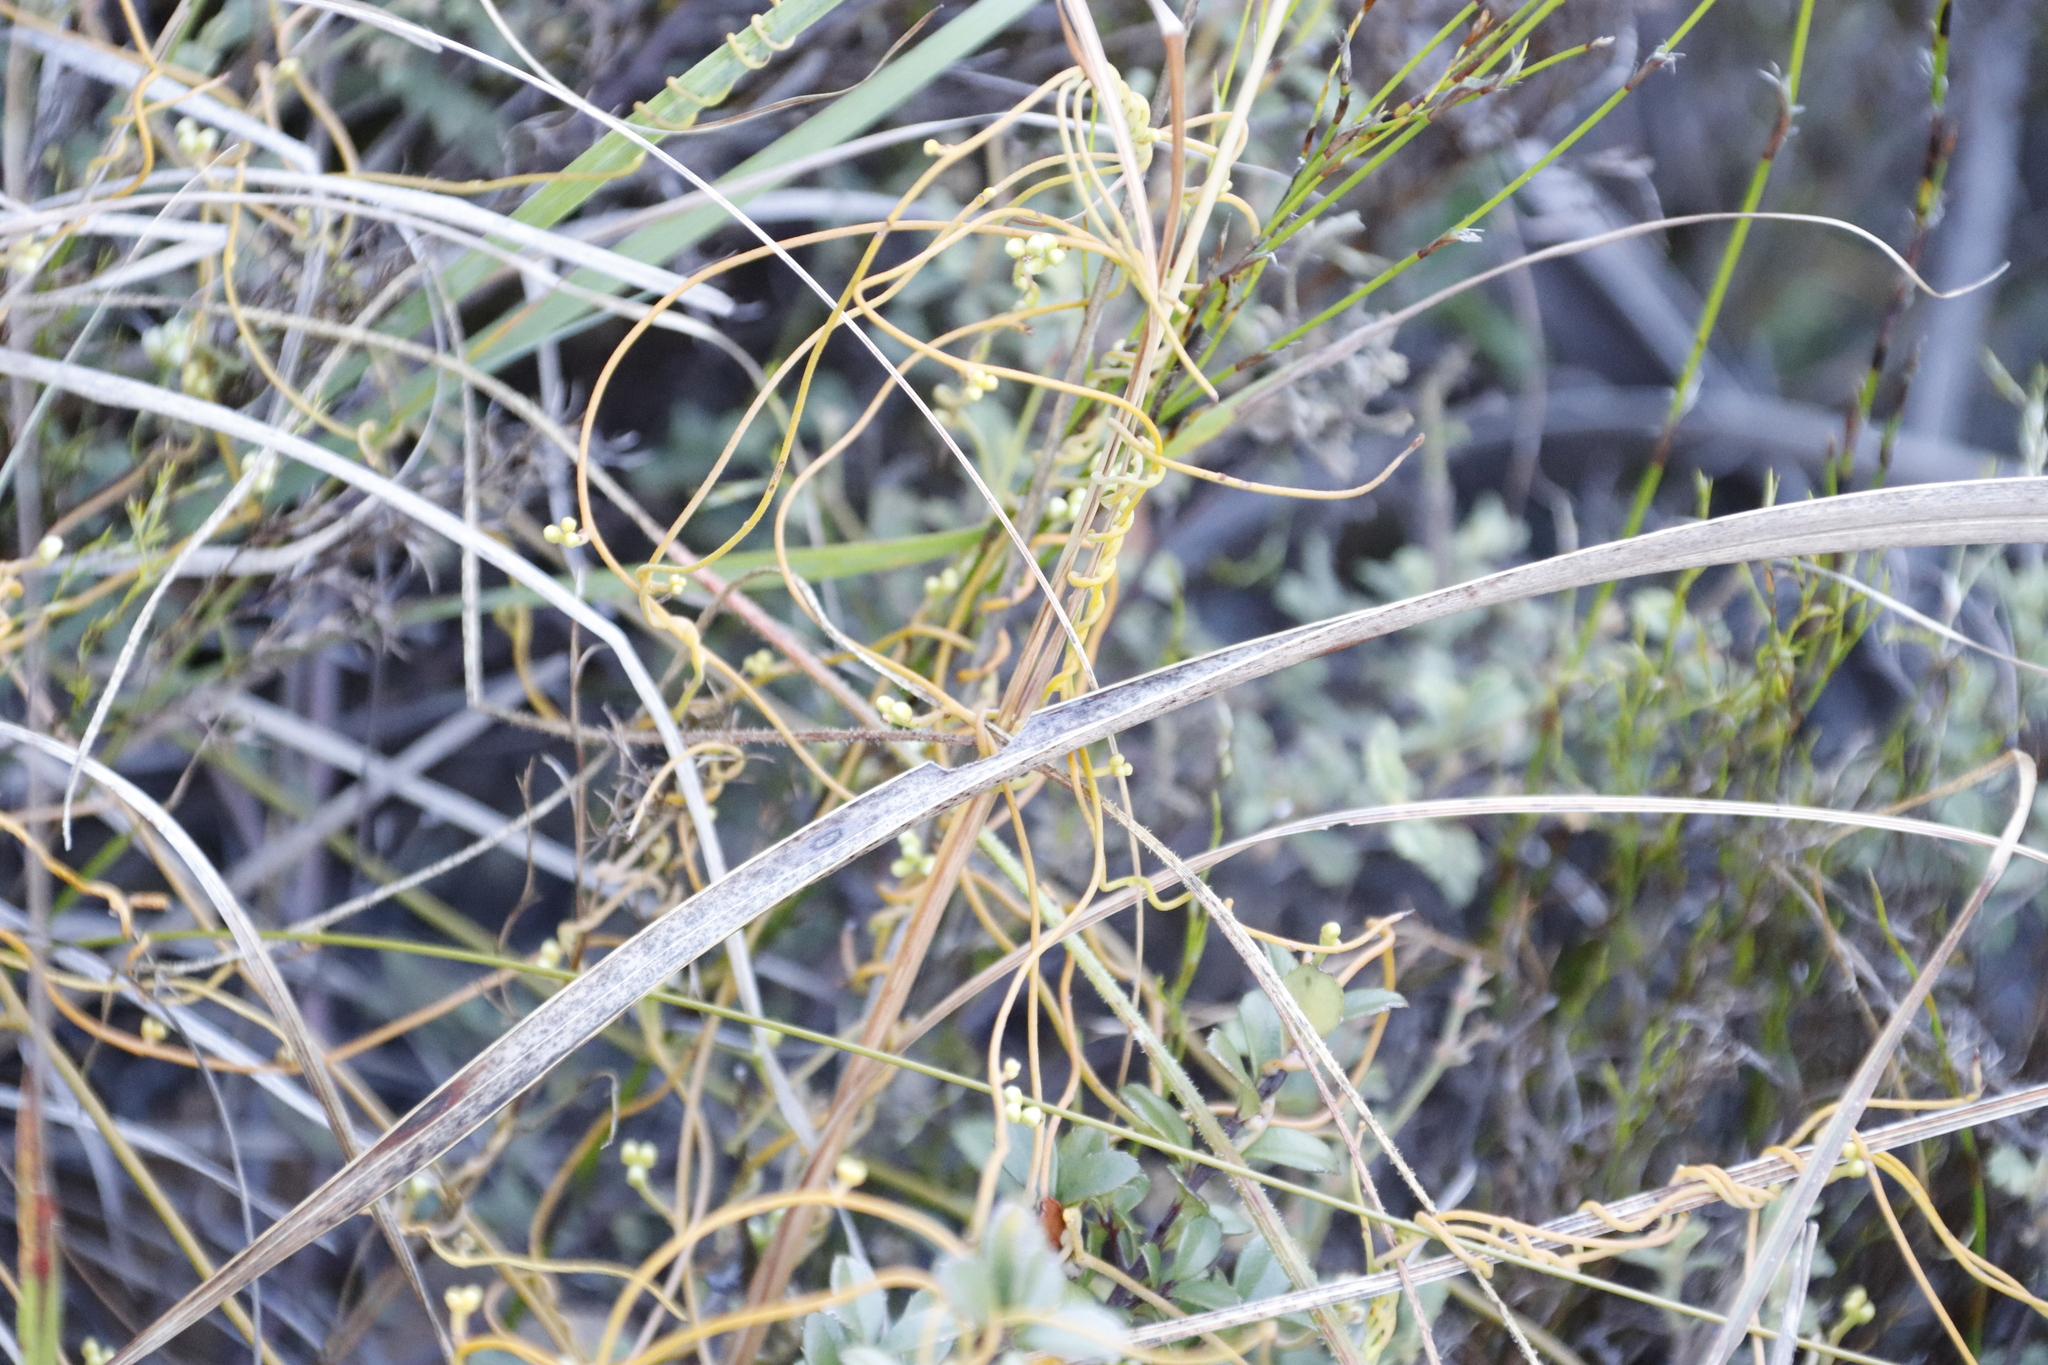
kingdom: Plantae
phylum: Tracheophyta
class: Magnoliopsida
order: Laurales
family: Lauraceae
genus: Cassytha
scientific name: Cassytha ciliolata
